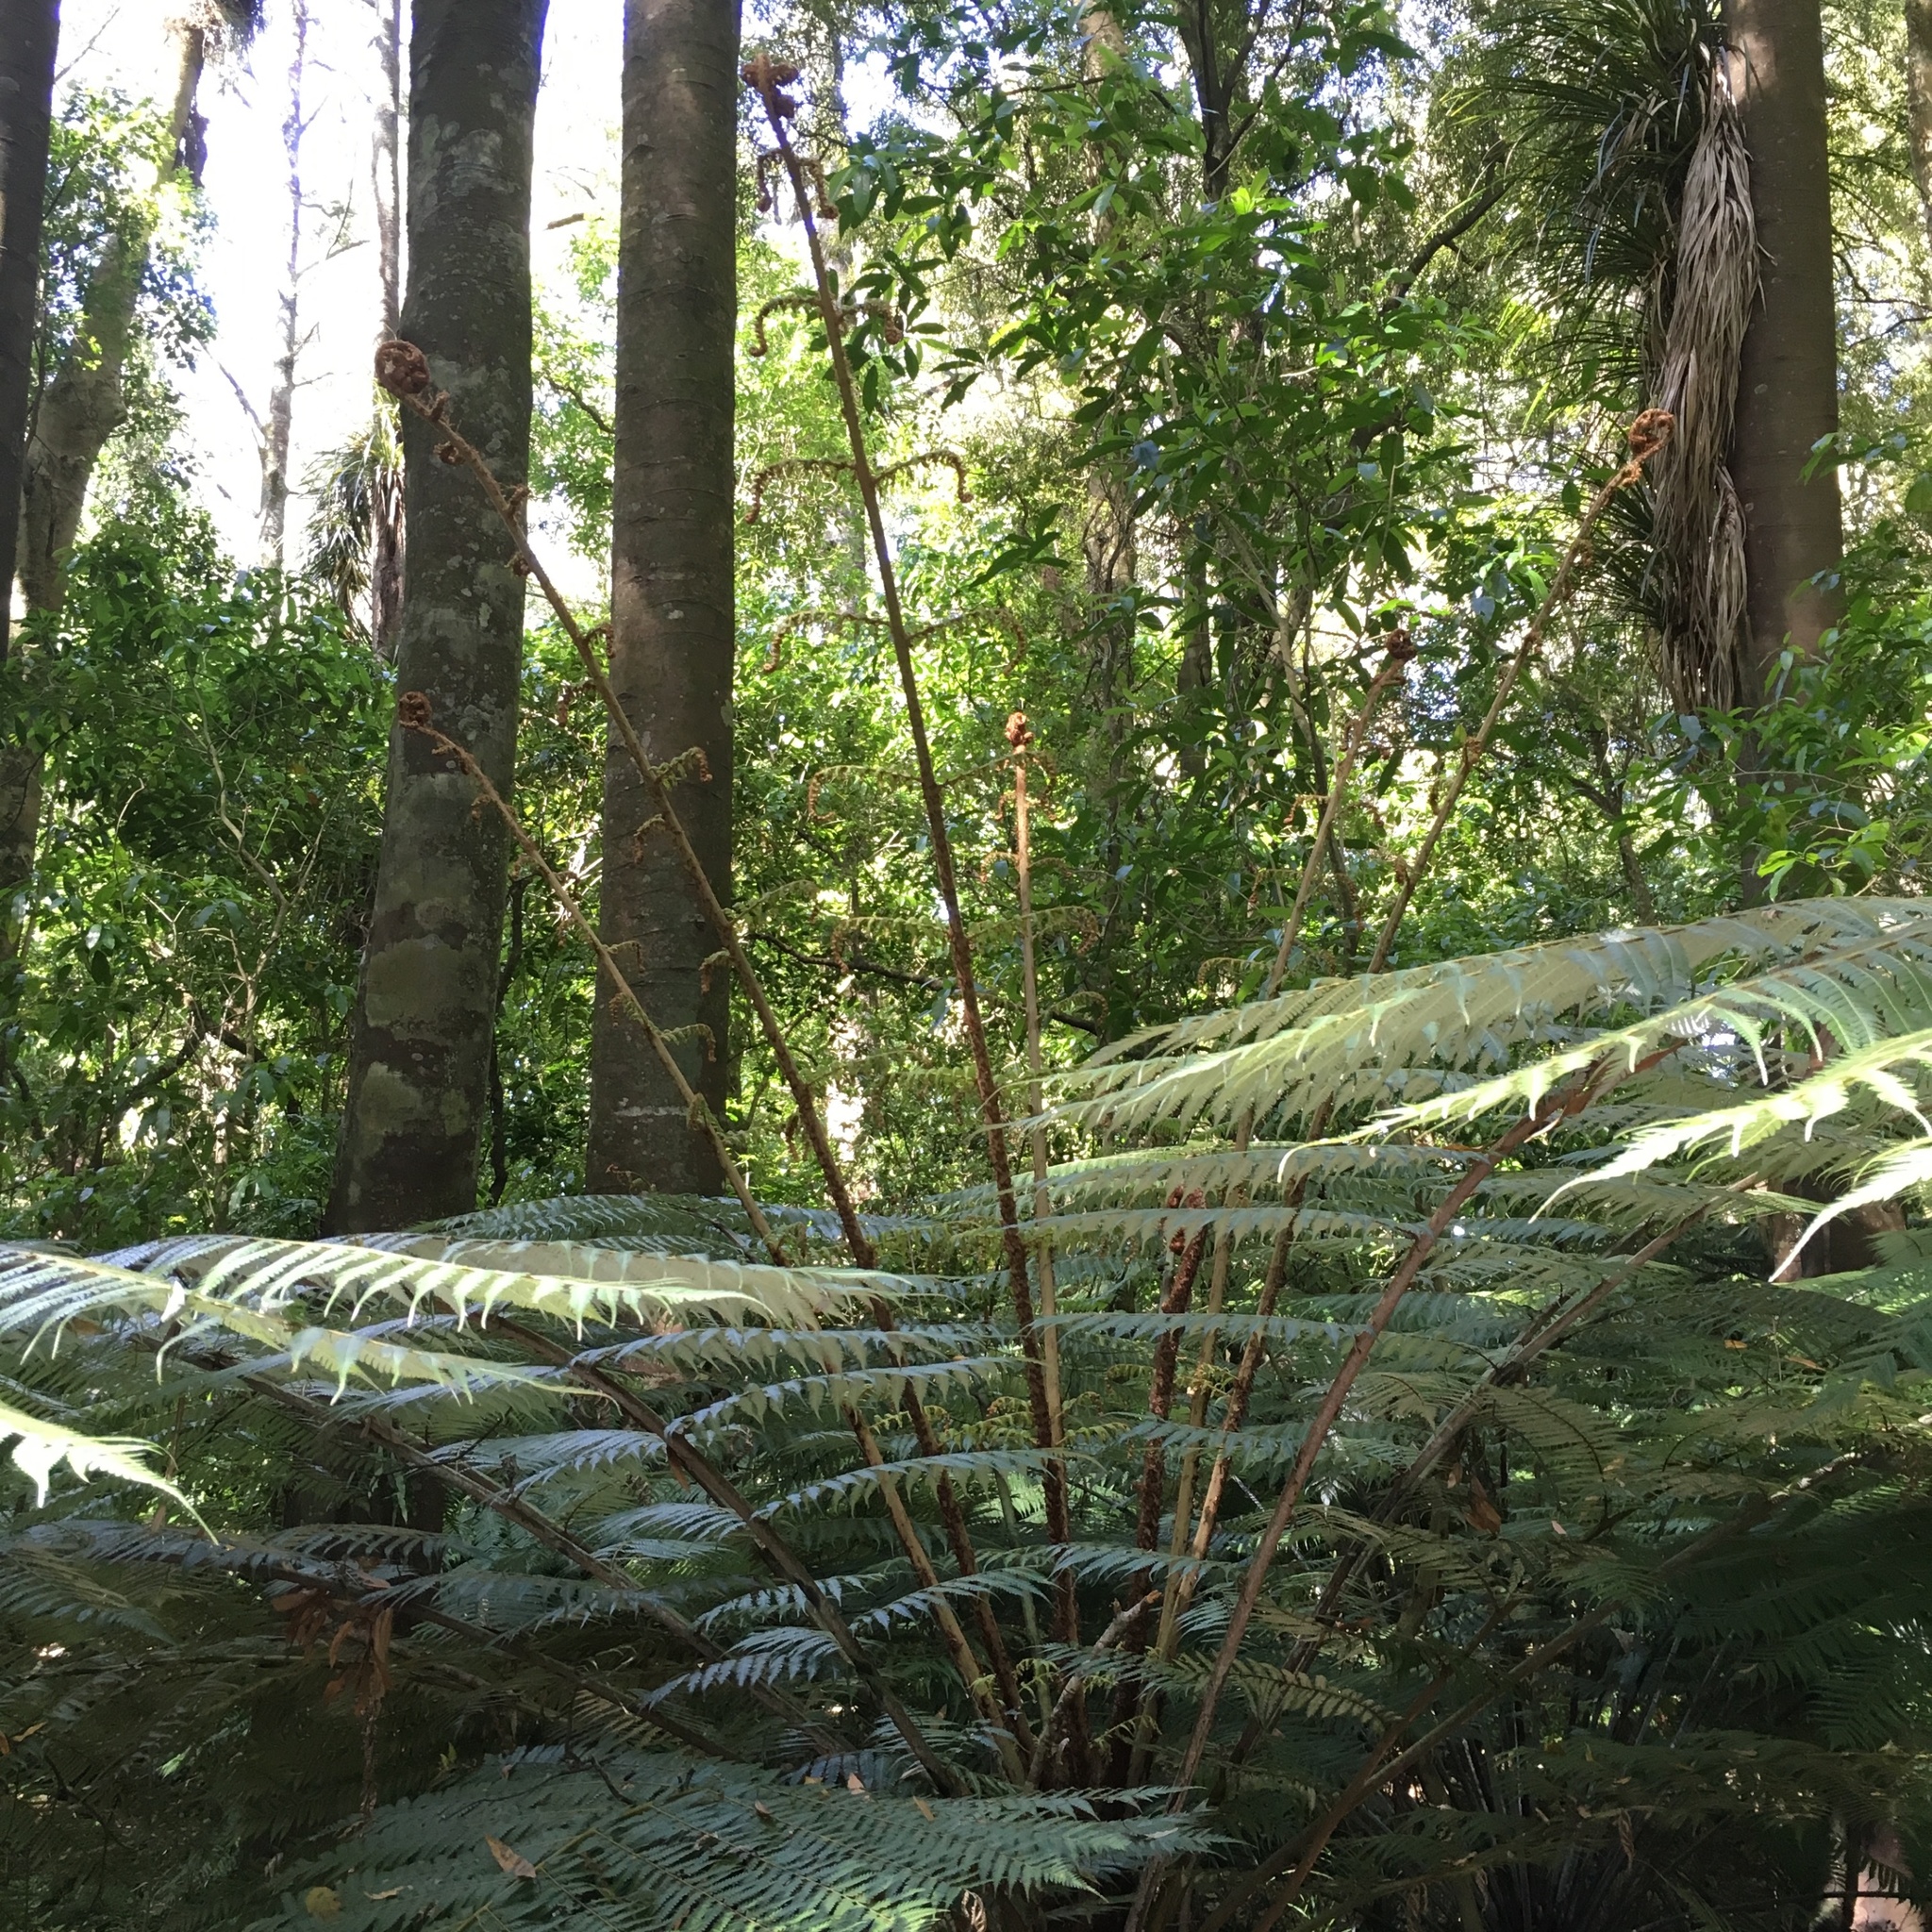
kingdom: Plantae
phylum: Tracheophyta
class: Polypodiopsida
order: Cyatheales
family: Cyatheaceae
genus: Alsophila
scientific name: Alsophila dealbata
